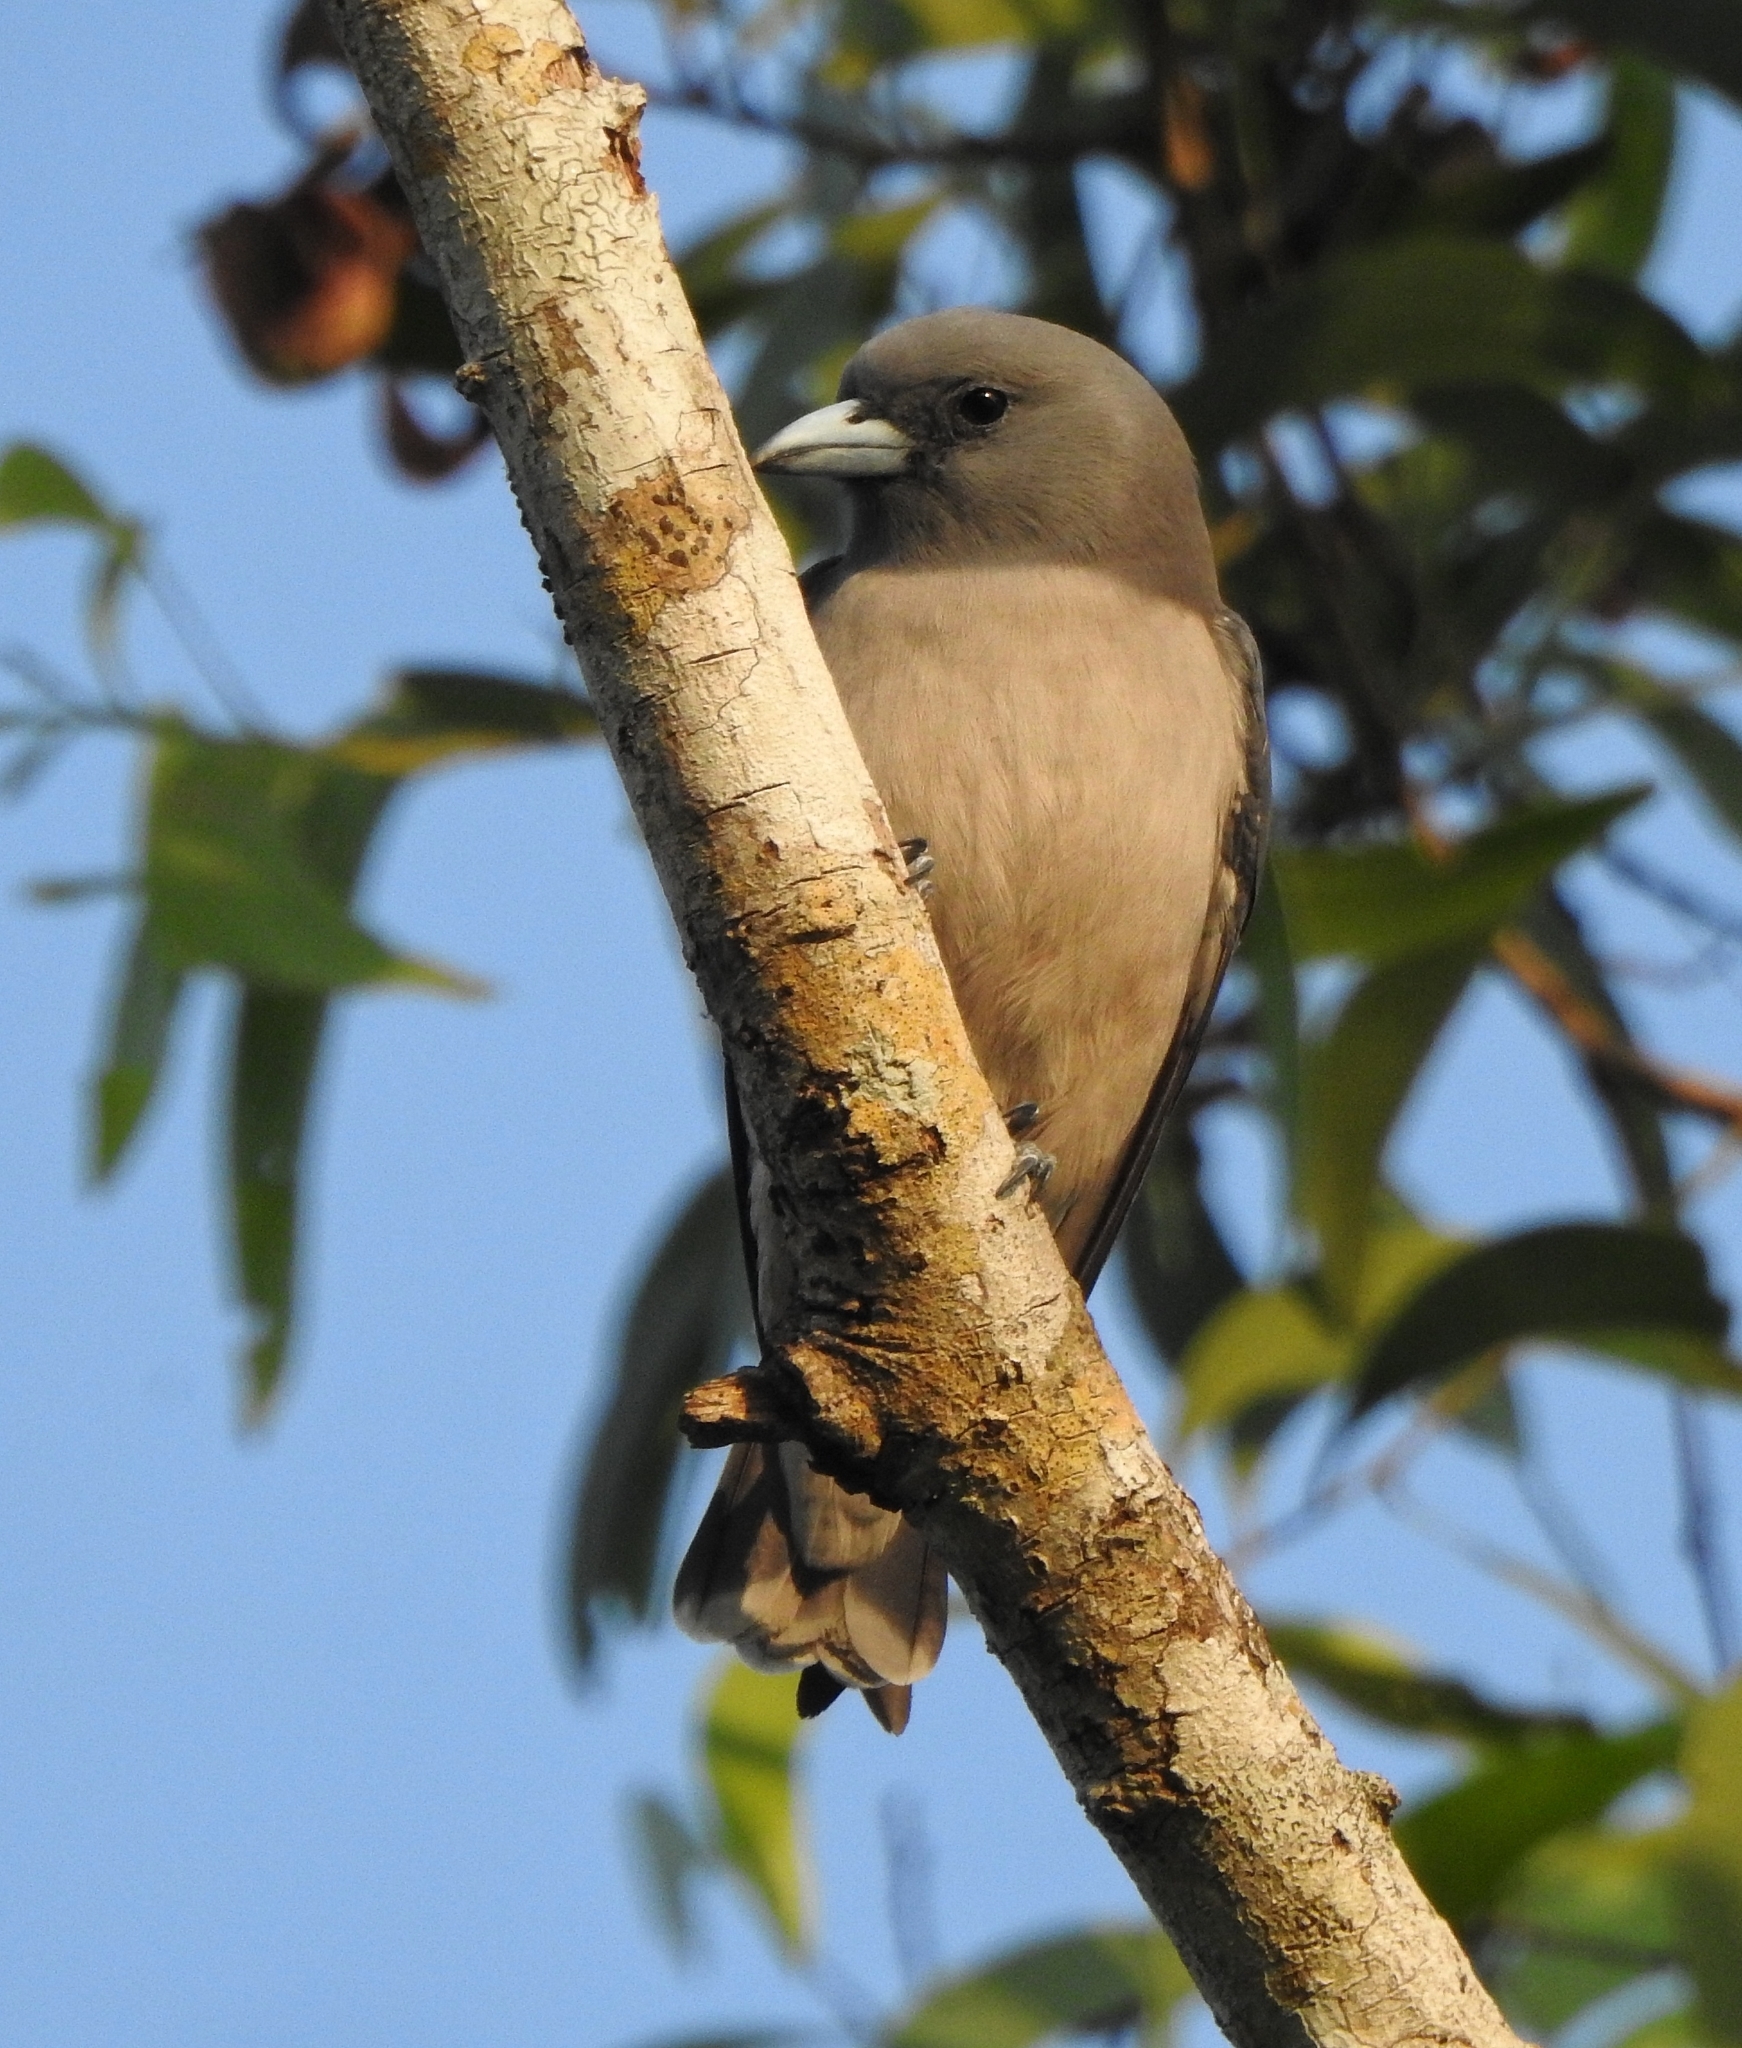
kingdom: Animalia
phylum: Chordata
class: Aves
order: Passeriformes
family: Artamidae
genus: Artamus
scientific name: Artamus fuscus
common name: Ashy woodswallow
